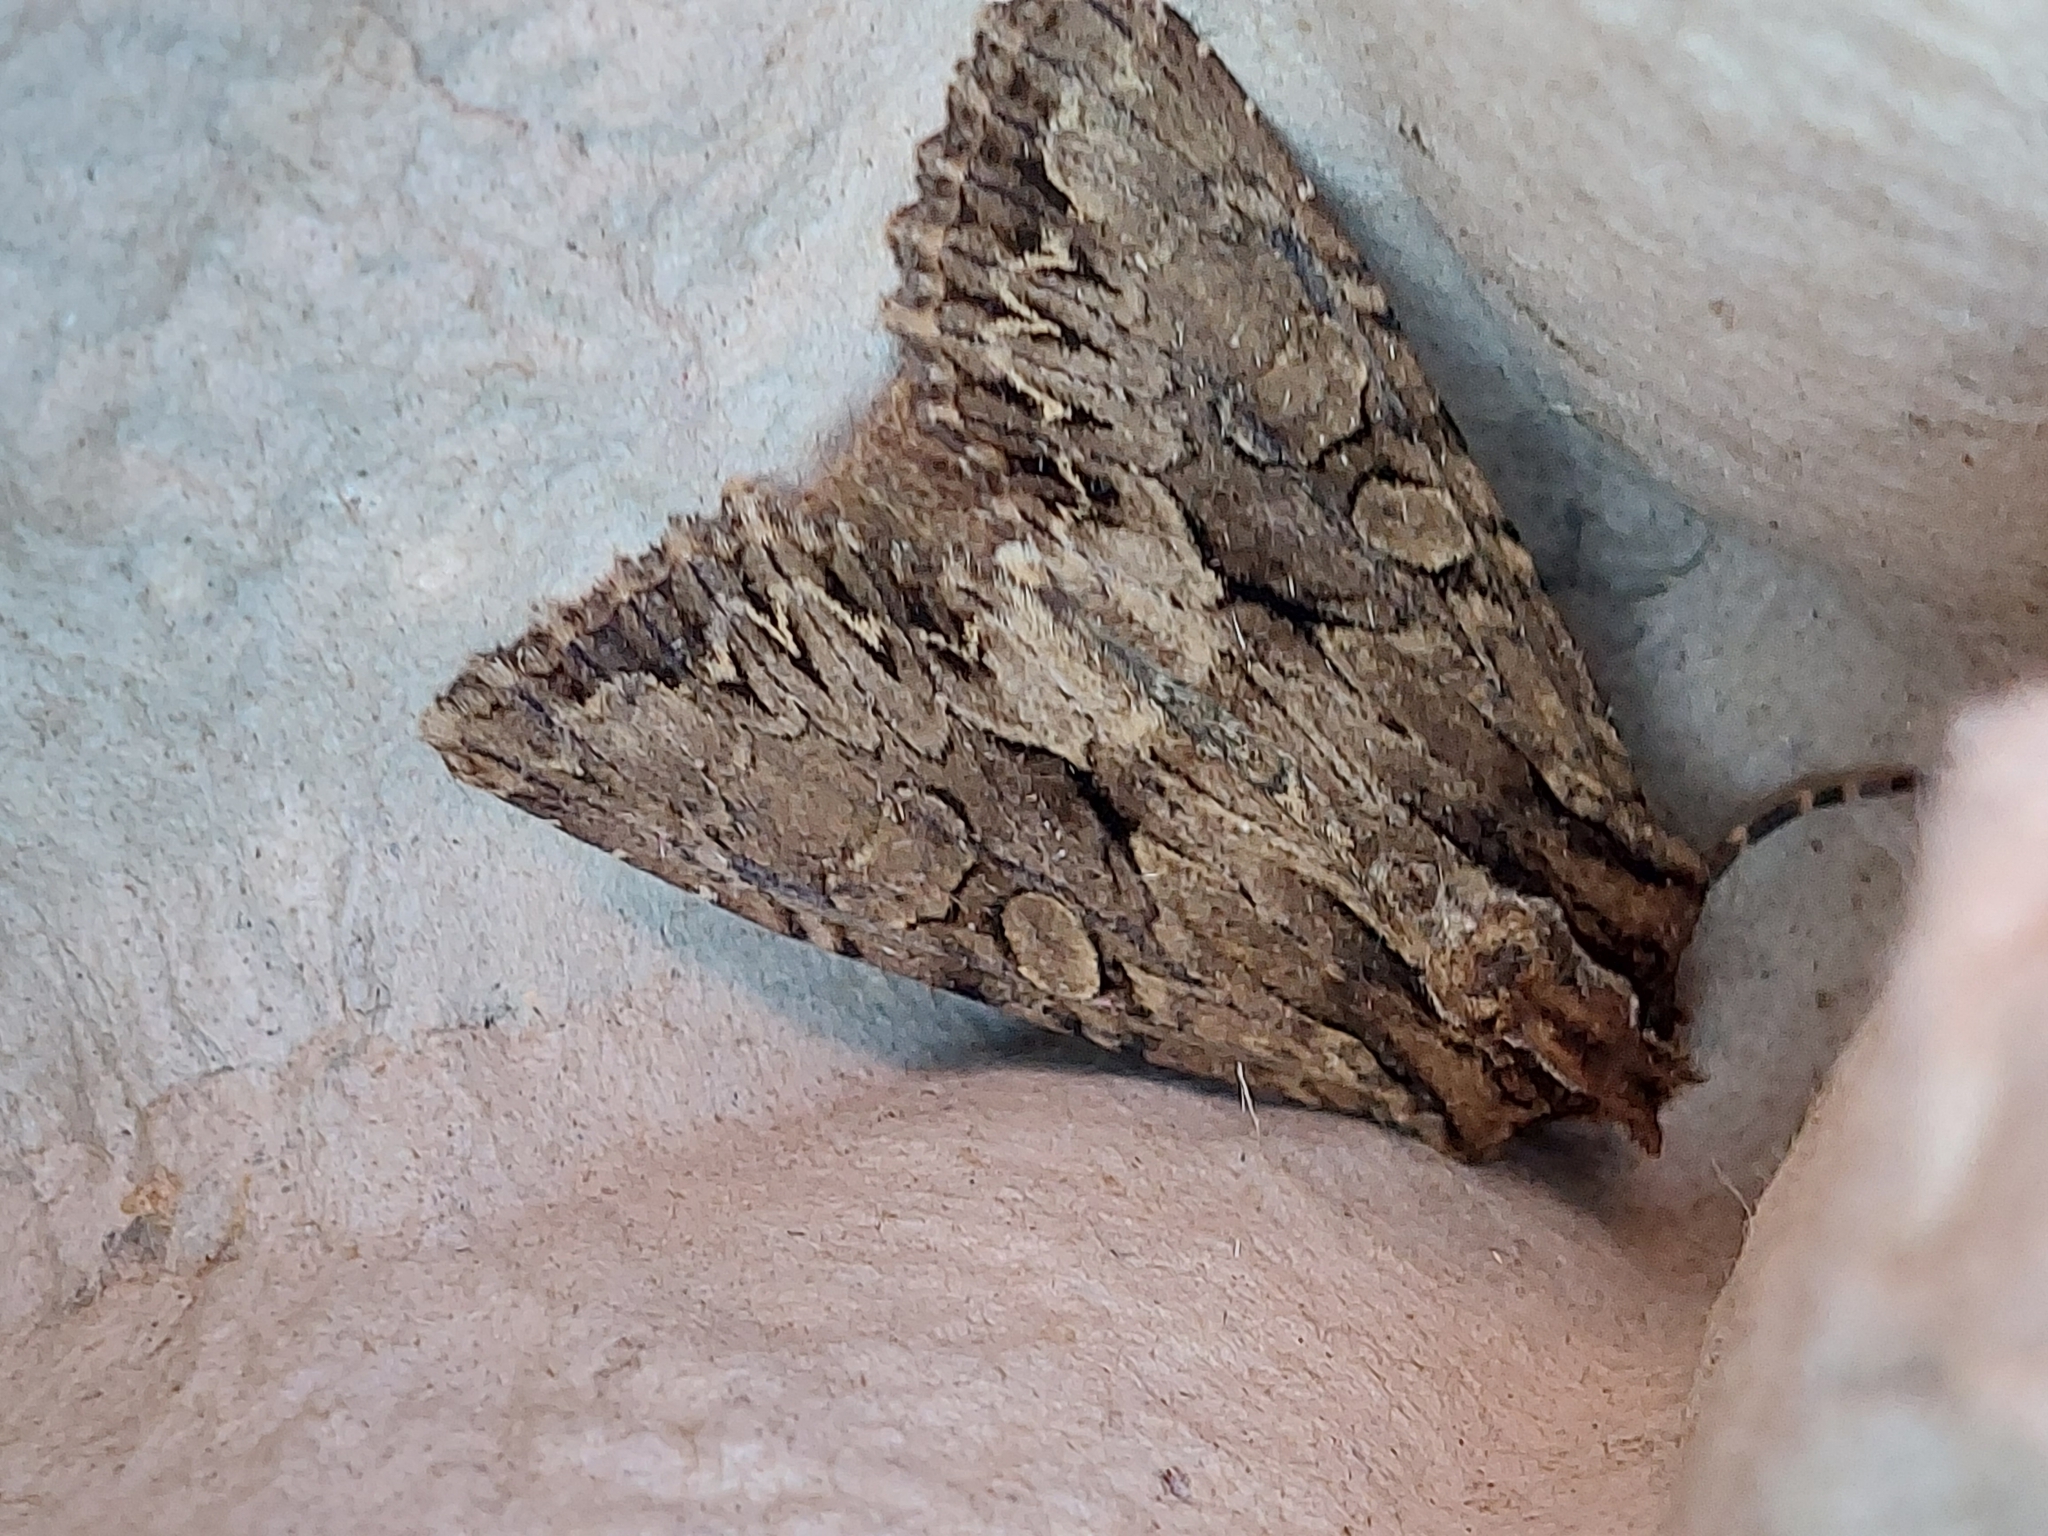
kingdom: Animalia
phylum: Arthropoda
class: Insecta
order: Lepidoptera
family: Noctuidae
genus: Apamea
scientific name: Apamea monoglypha
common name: Dark arches
